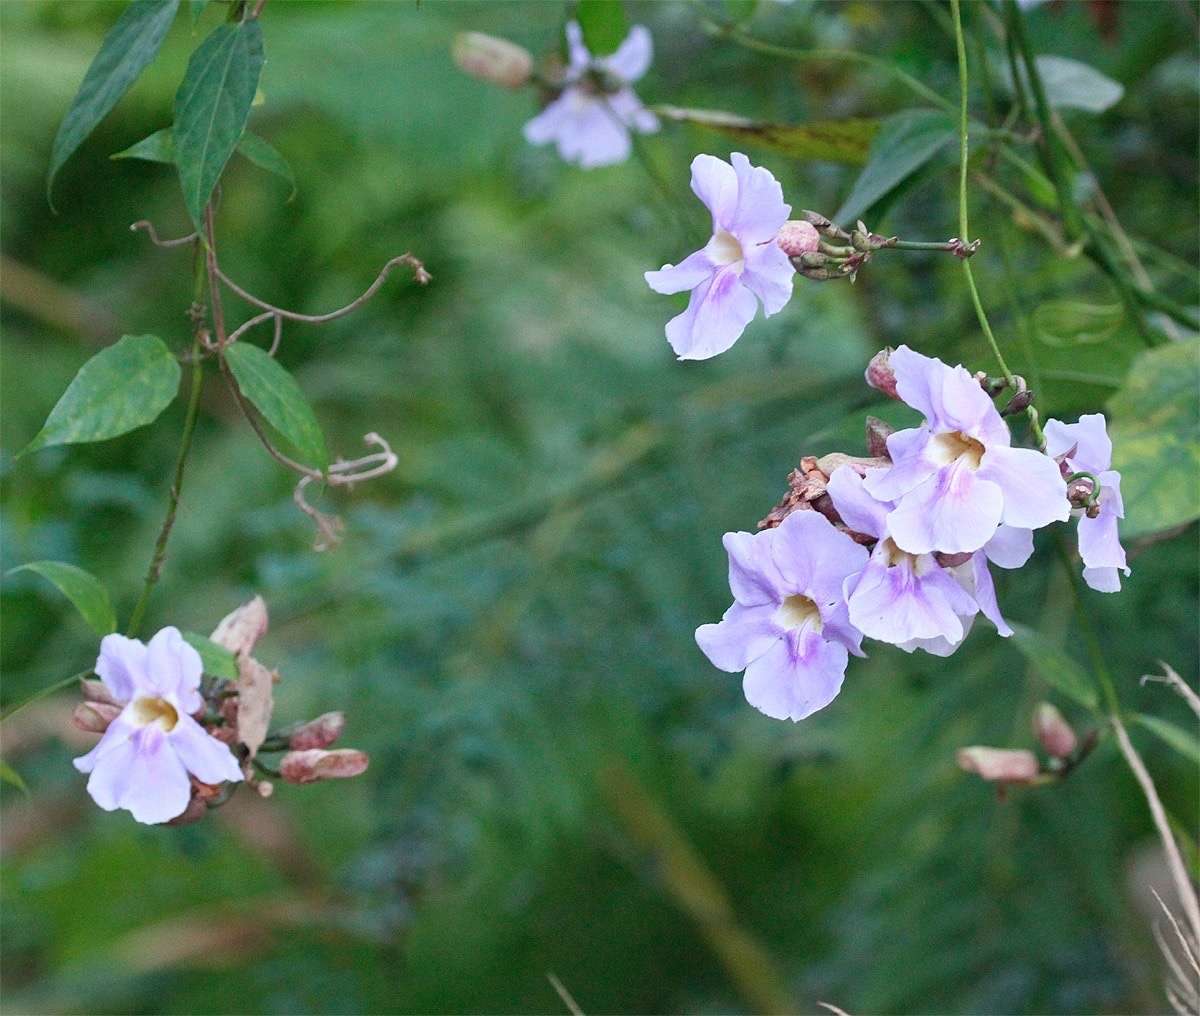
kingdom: Plantae
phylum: Tracheophyta
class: Magnoliopsida
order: Lamiales
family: Acanthaceae
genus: Thunbergia
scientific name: Thunbergia grandiflora
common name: Bengal trumpet
